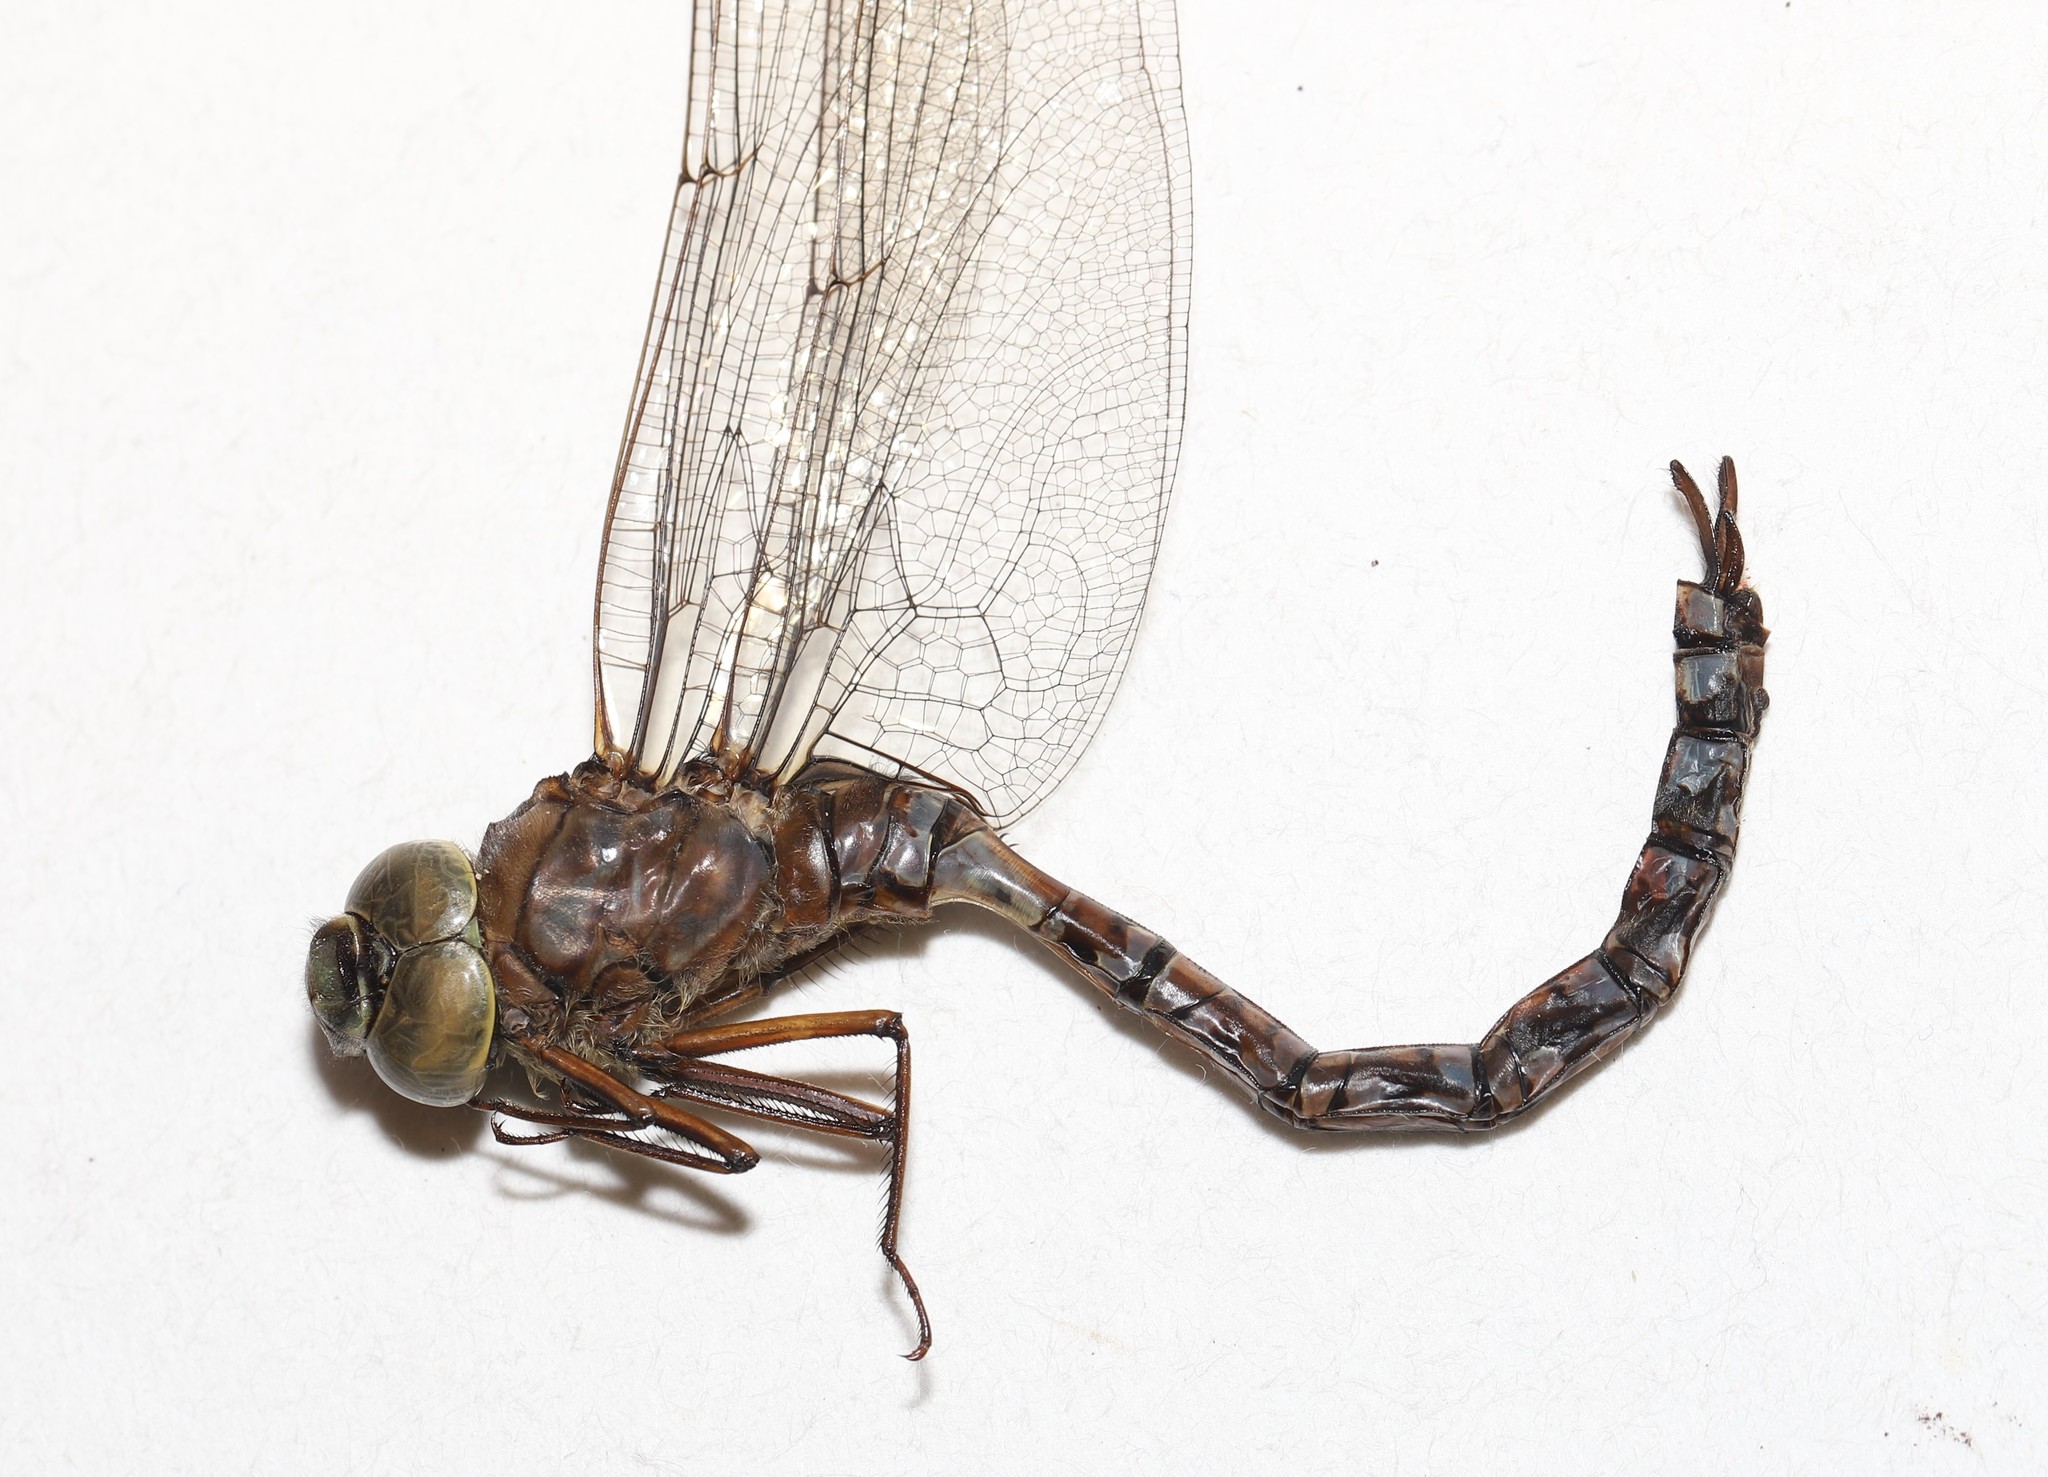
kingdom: Animalia
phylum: Arthropoda
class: Insecta
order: Odonata
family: Aeshnidae
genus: Aeshna
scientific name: Aeshna eremita
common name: Lake darner
